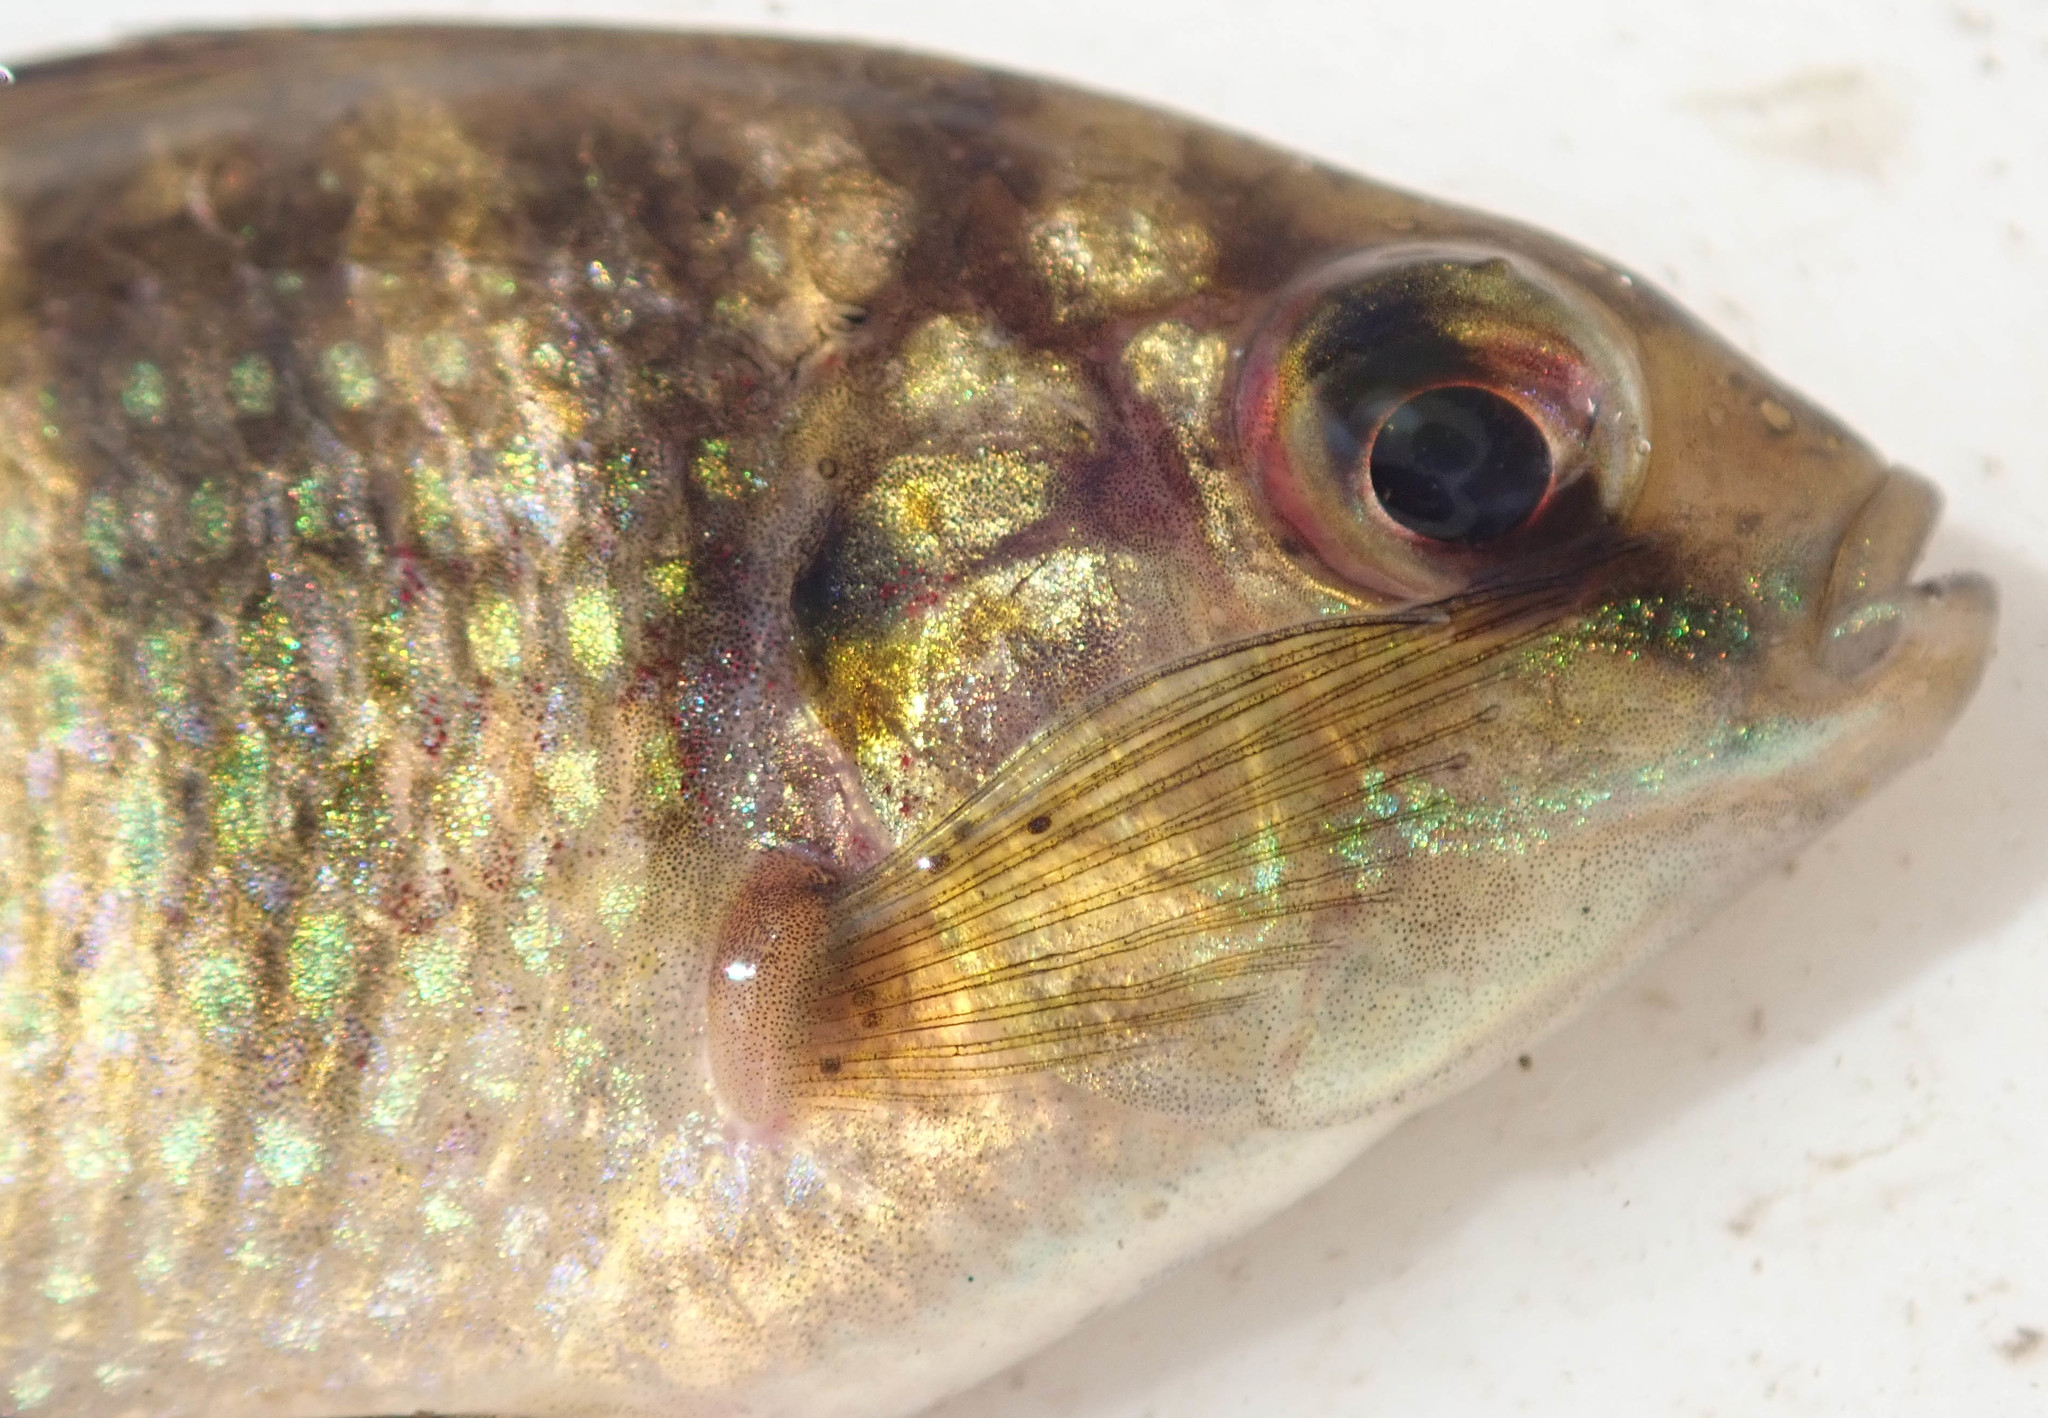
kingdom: Animalia
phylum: Chordata
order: Perciformes
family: Cichlidae
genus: Tilapia
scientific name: Tilapia sparrmanii
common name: Banded tilapia
